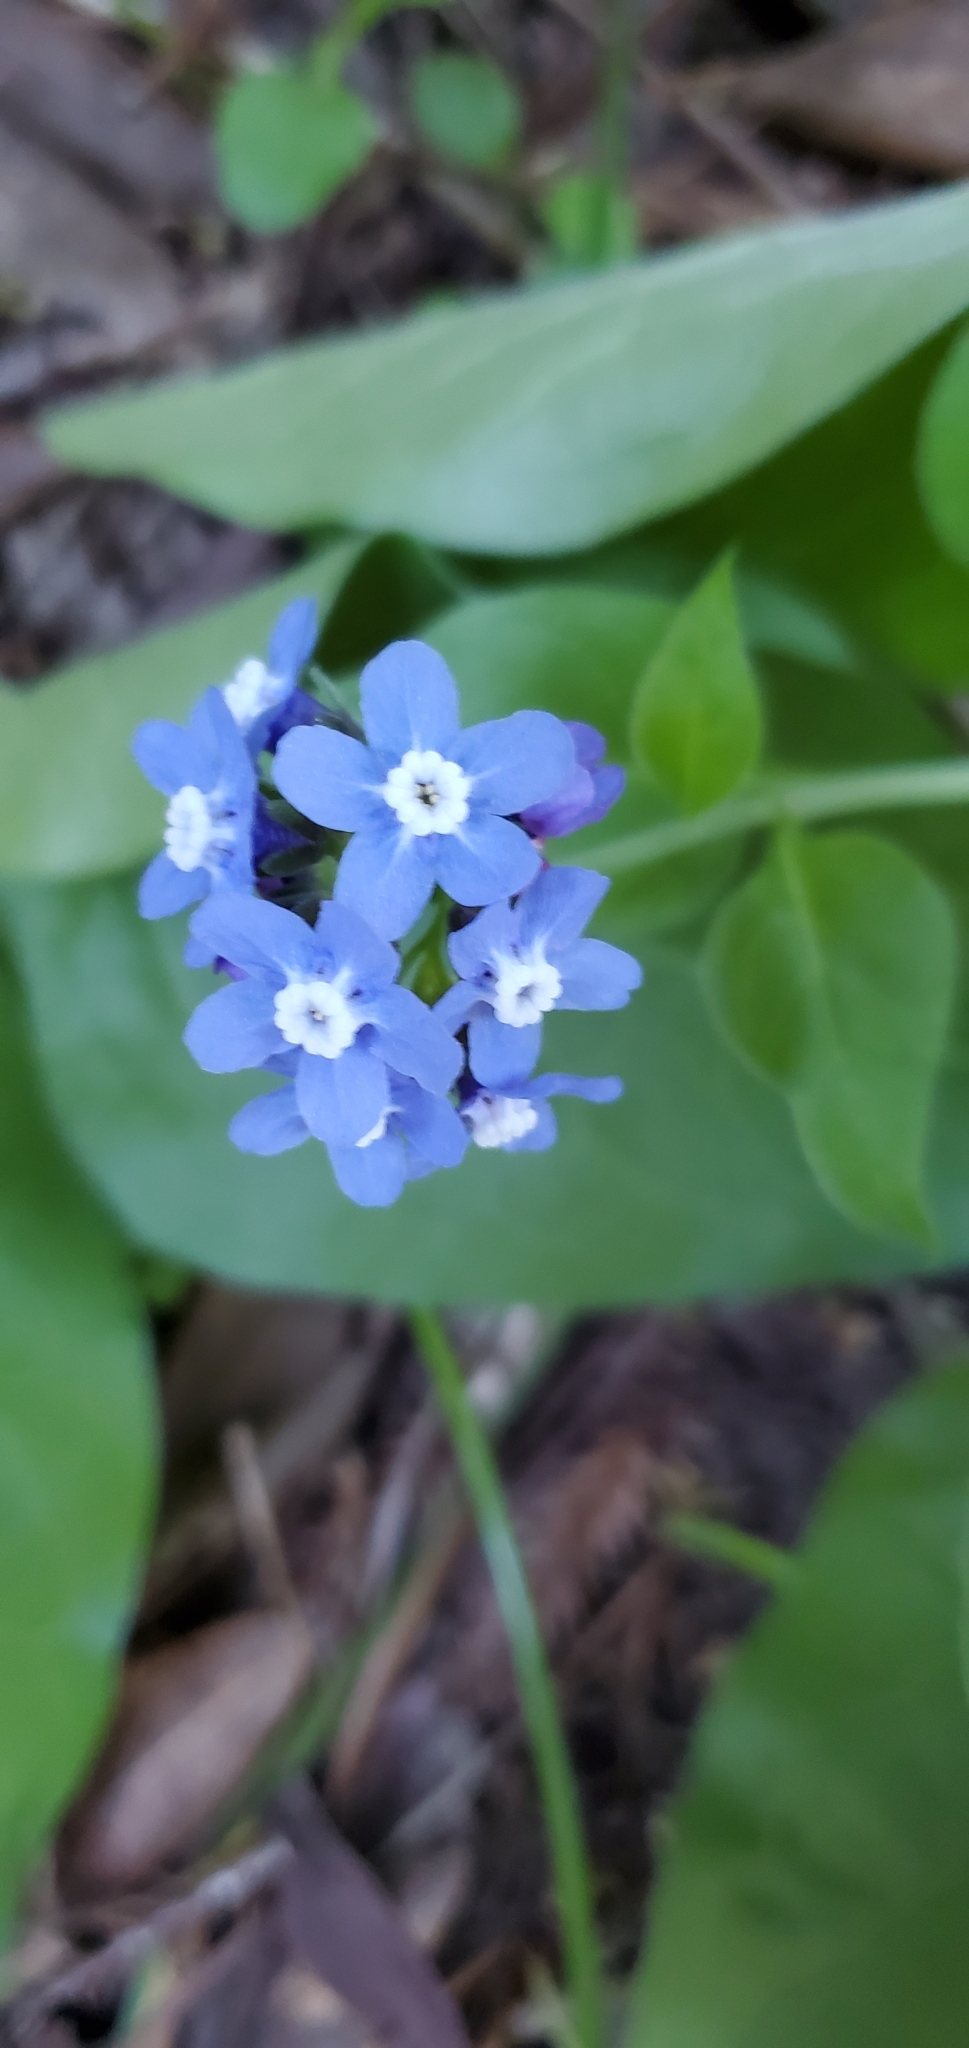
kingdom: Plantae
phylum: Tracheophyta
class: Magnoliopsida
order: Boraginales
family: Boraginaceae
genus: Adelinia
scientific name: Adelinia grande
